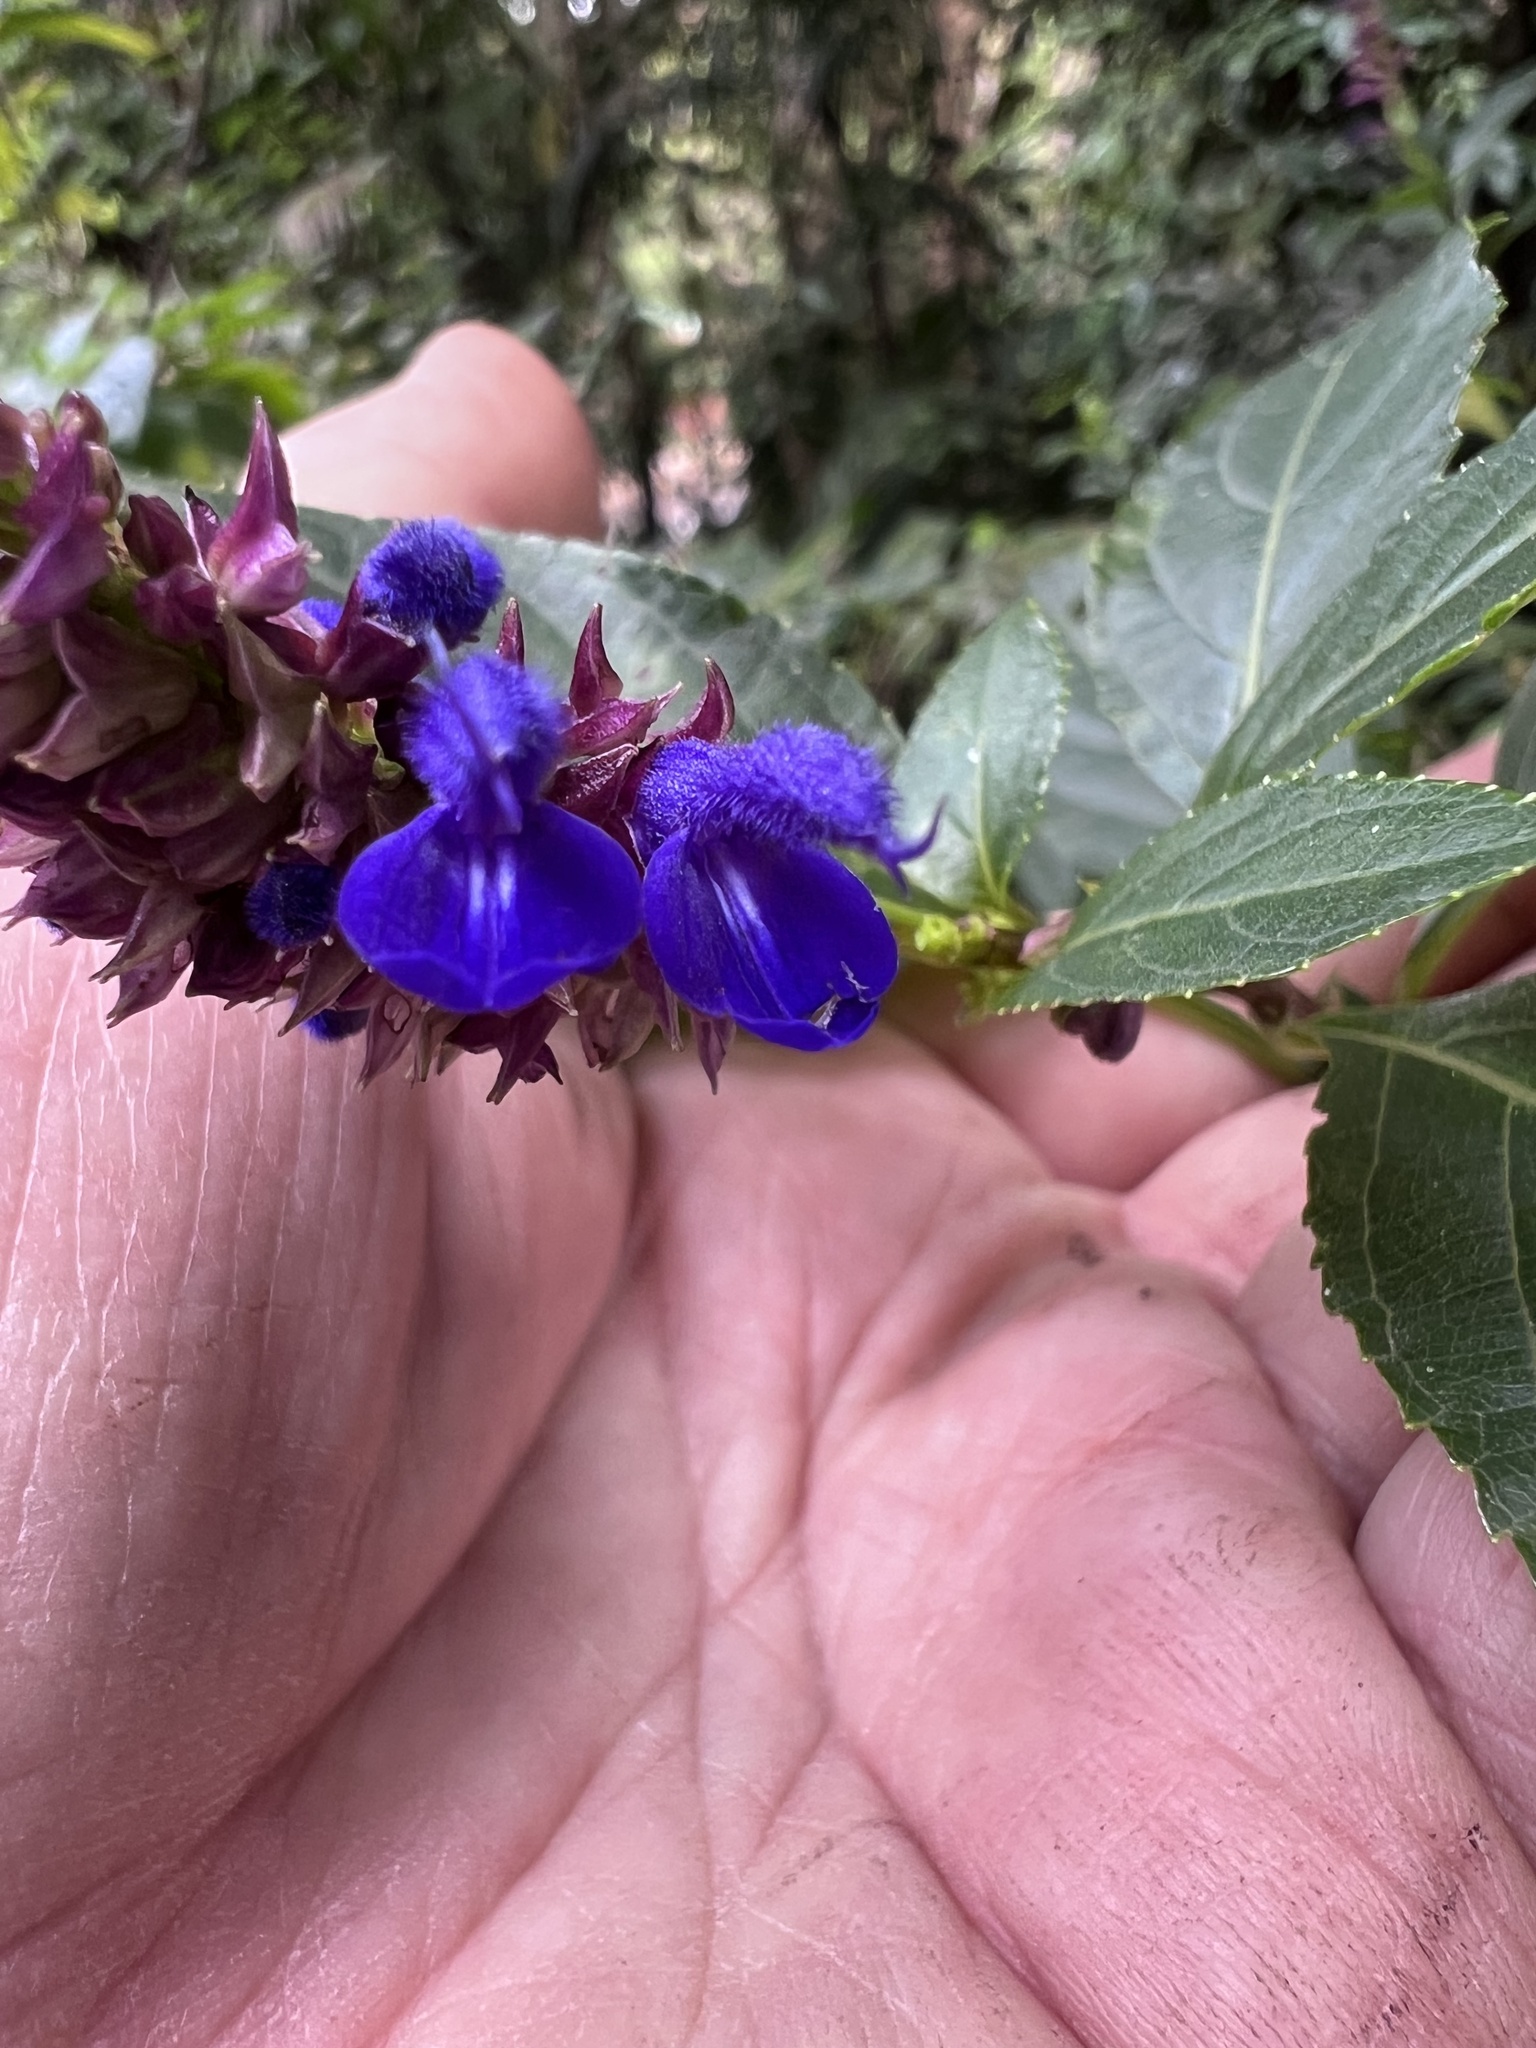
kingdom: Plantae
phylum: Tracheophyta
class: Magnoliopsida
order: Lamiales
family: Lamiaceae
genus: Salvia
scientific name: Salvia pteroura
